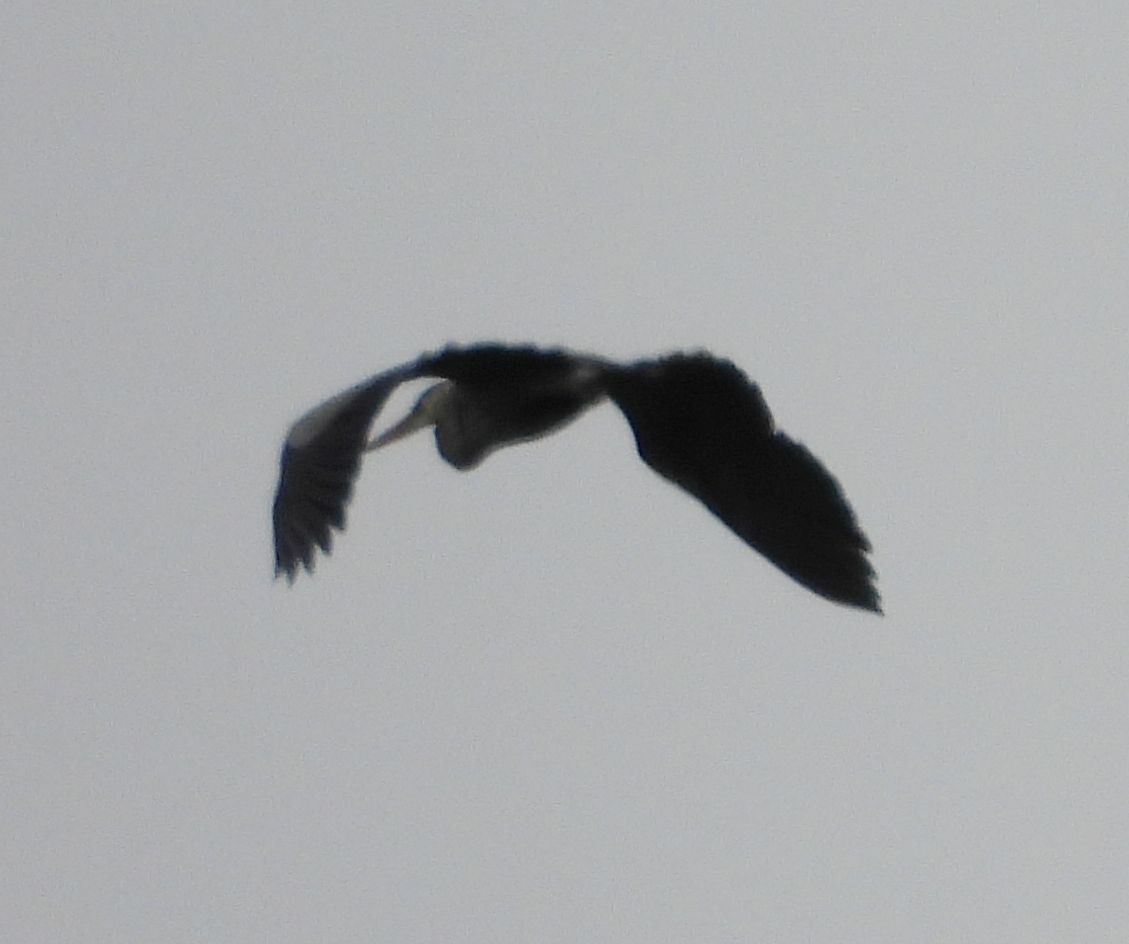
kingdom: Animalia
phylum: Chordata
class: Aves
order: Pelecaniformes
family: Ardeidae
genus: Ardea
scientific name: Ardea herodias
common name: Great blue heron
